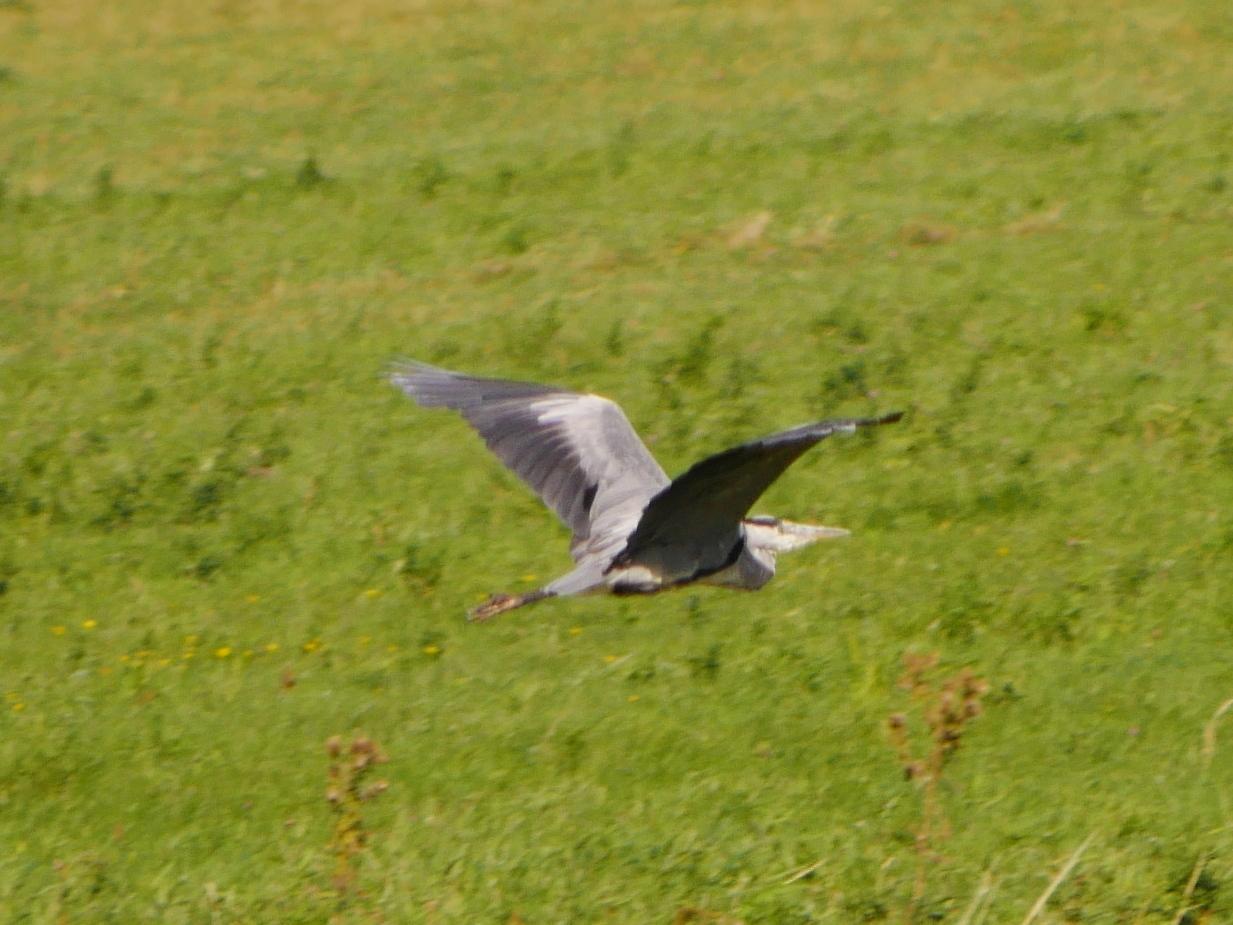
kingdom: Animalia
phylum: Chordata
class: Aves
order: Pelecaniformes
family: Ardeidae
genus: Ardea
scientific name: Ardea cinerea
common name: Grey heron
